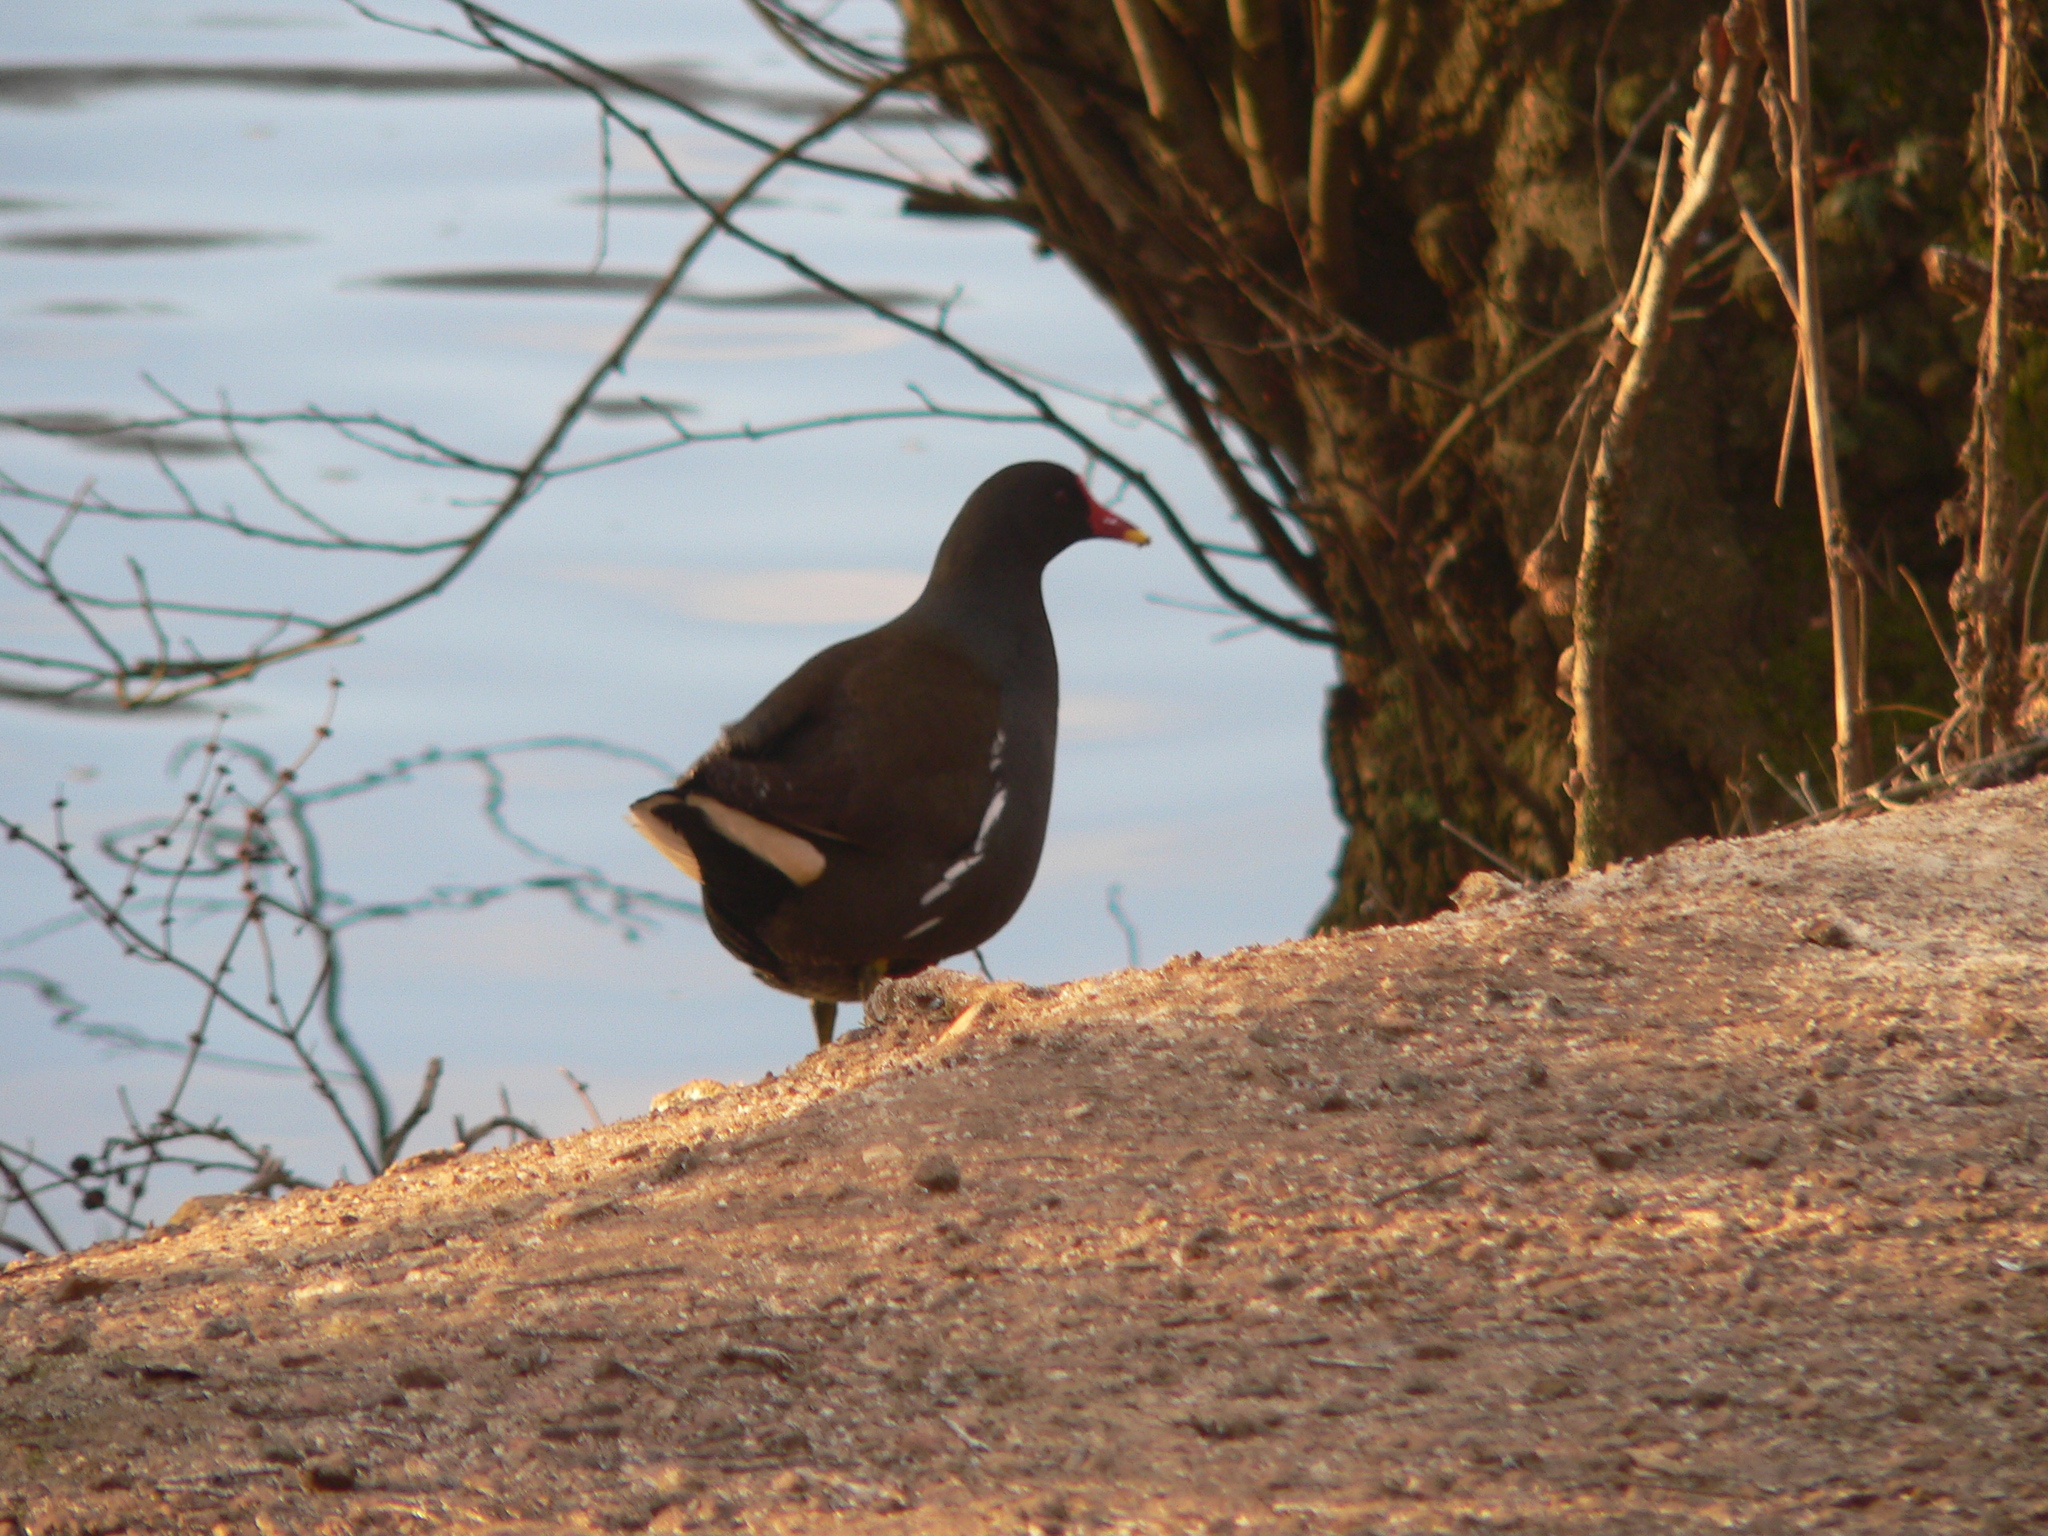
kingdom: Animalia
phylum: Chordata
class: Aves
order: Gruiformes
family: Rallidae
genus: Gallinula
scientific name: Gallinula chloropus
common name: Common moorhen
